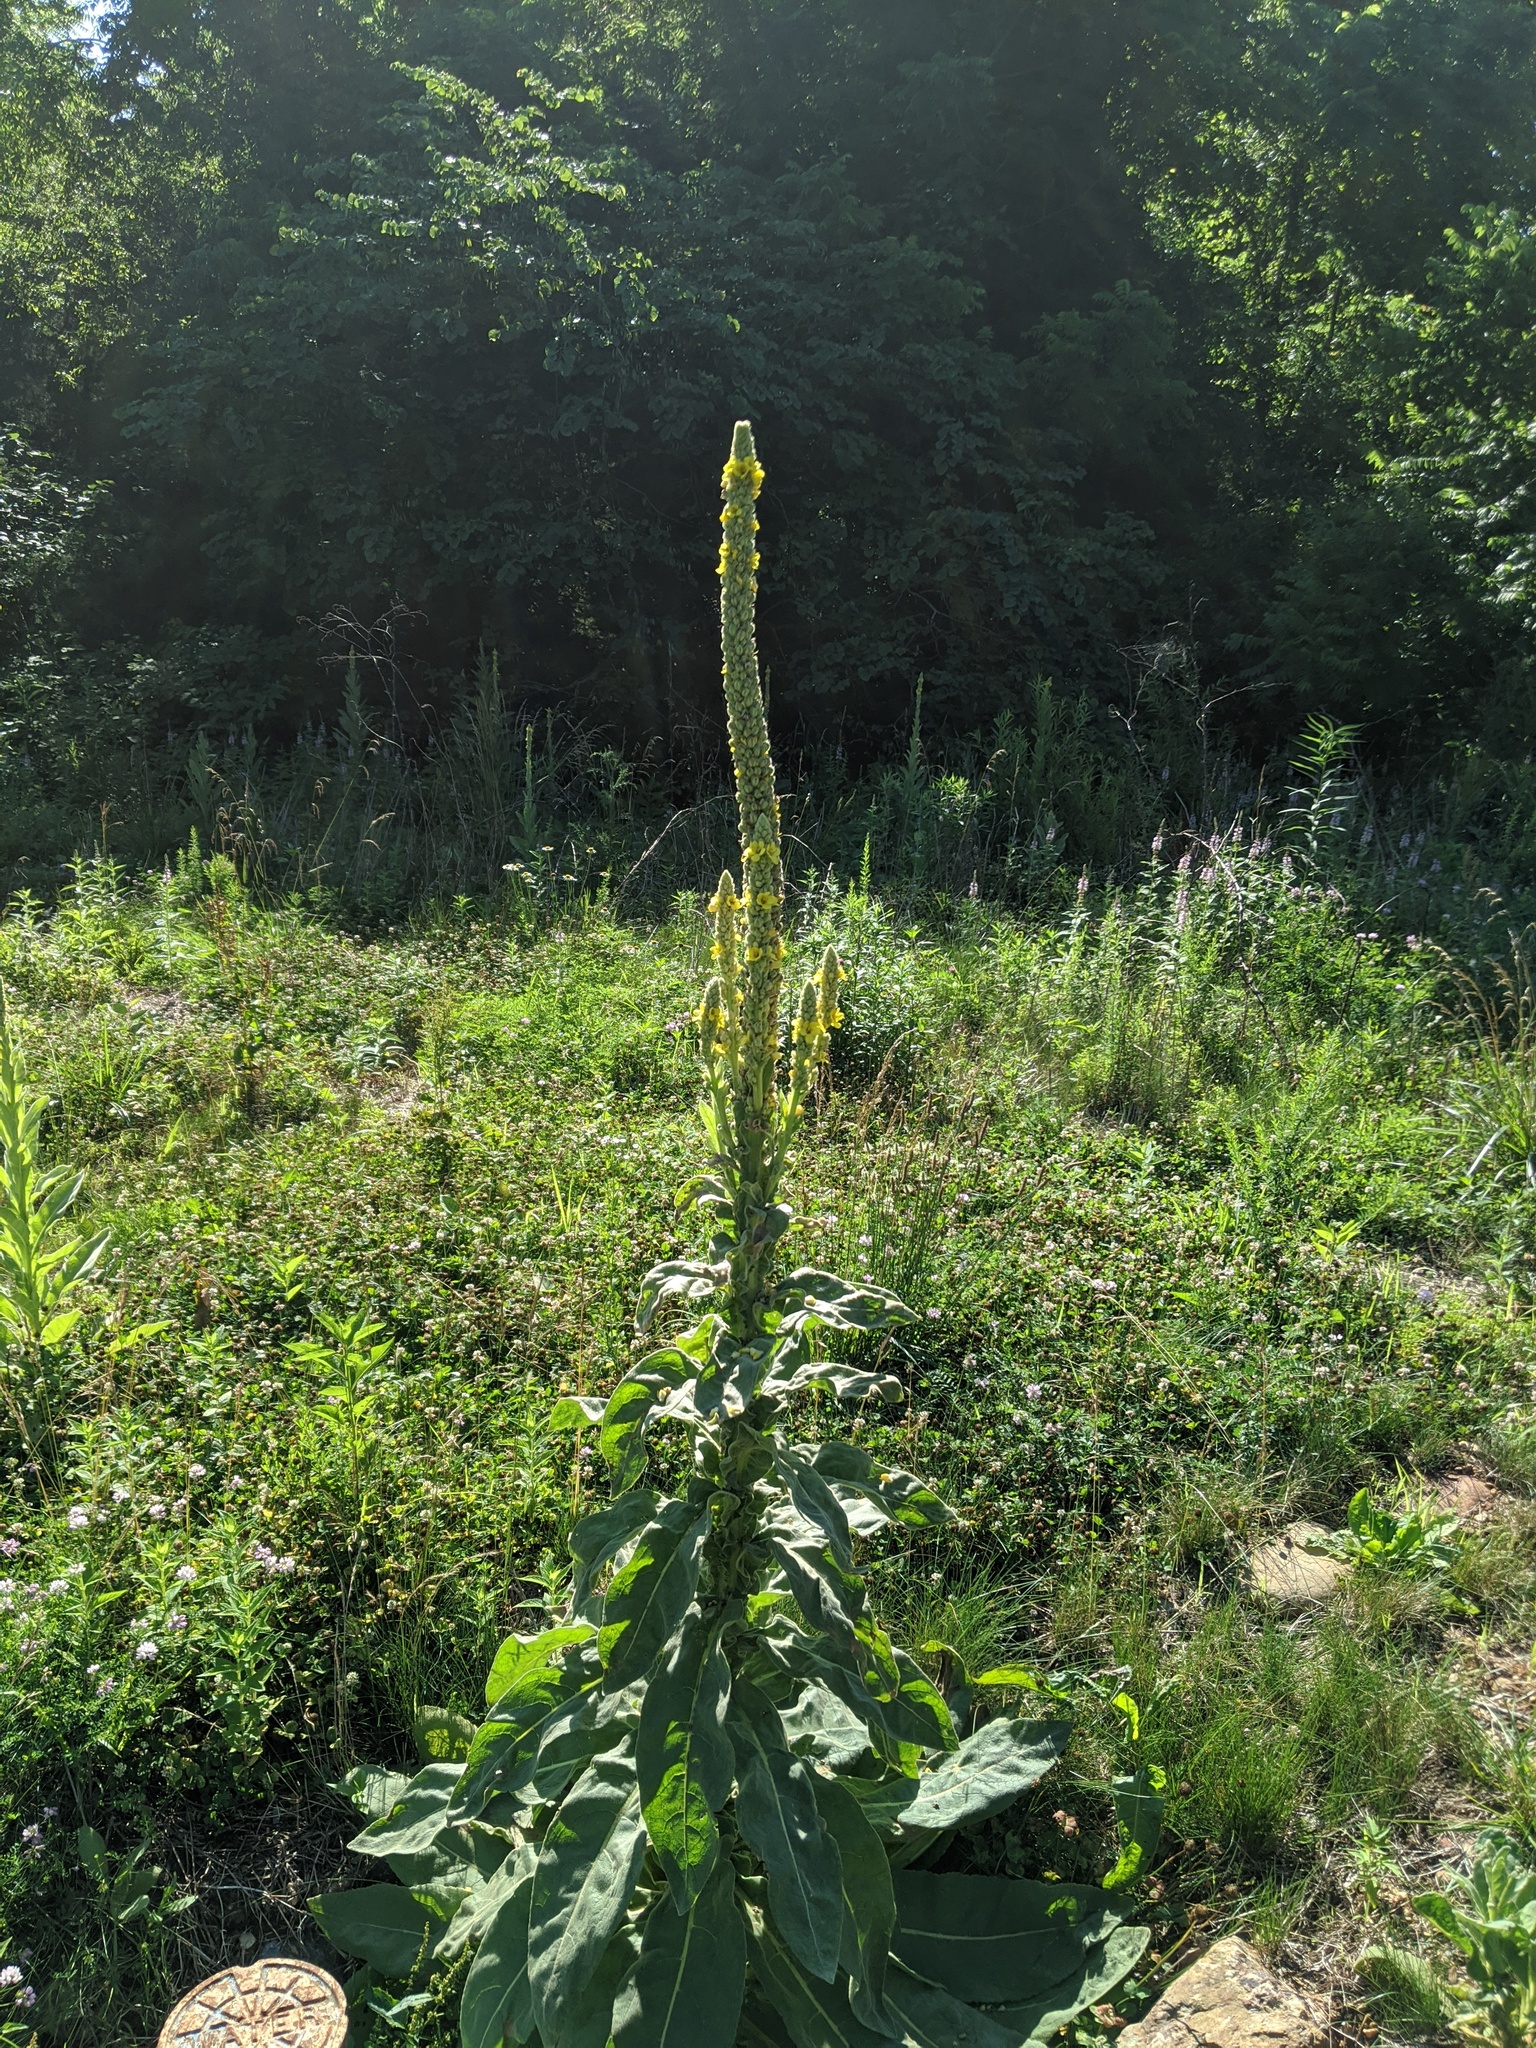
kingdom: Plantae
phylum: Tracheophyta
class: Magnoliopsida
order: Lamiales
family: Scrophulariaceae
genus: Verbascum
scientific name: Verbascum thapsus
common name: Common mullein
